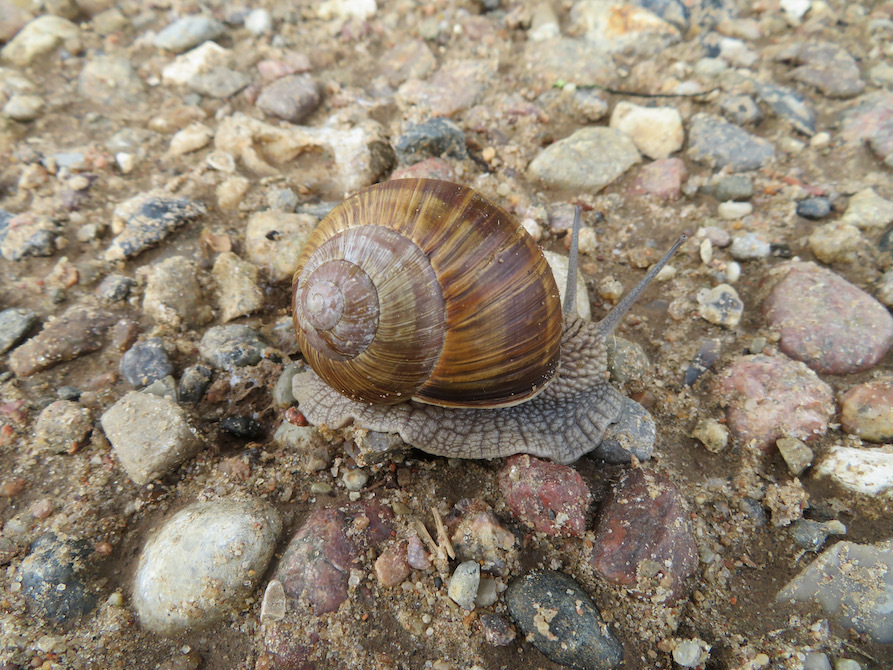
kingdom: Animalia
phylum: Mollusca
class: Gastropoda
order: Stylommatophora
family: Helicidae
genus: Helix
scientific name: Helix pomatia
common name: Roman snail
